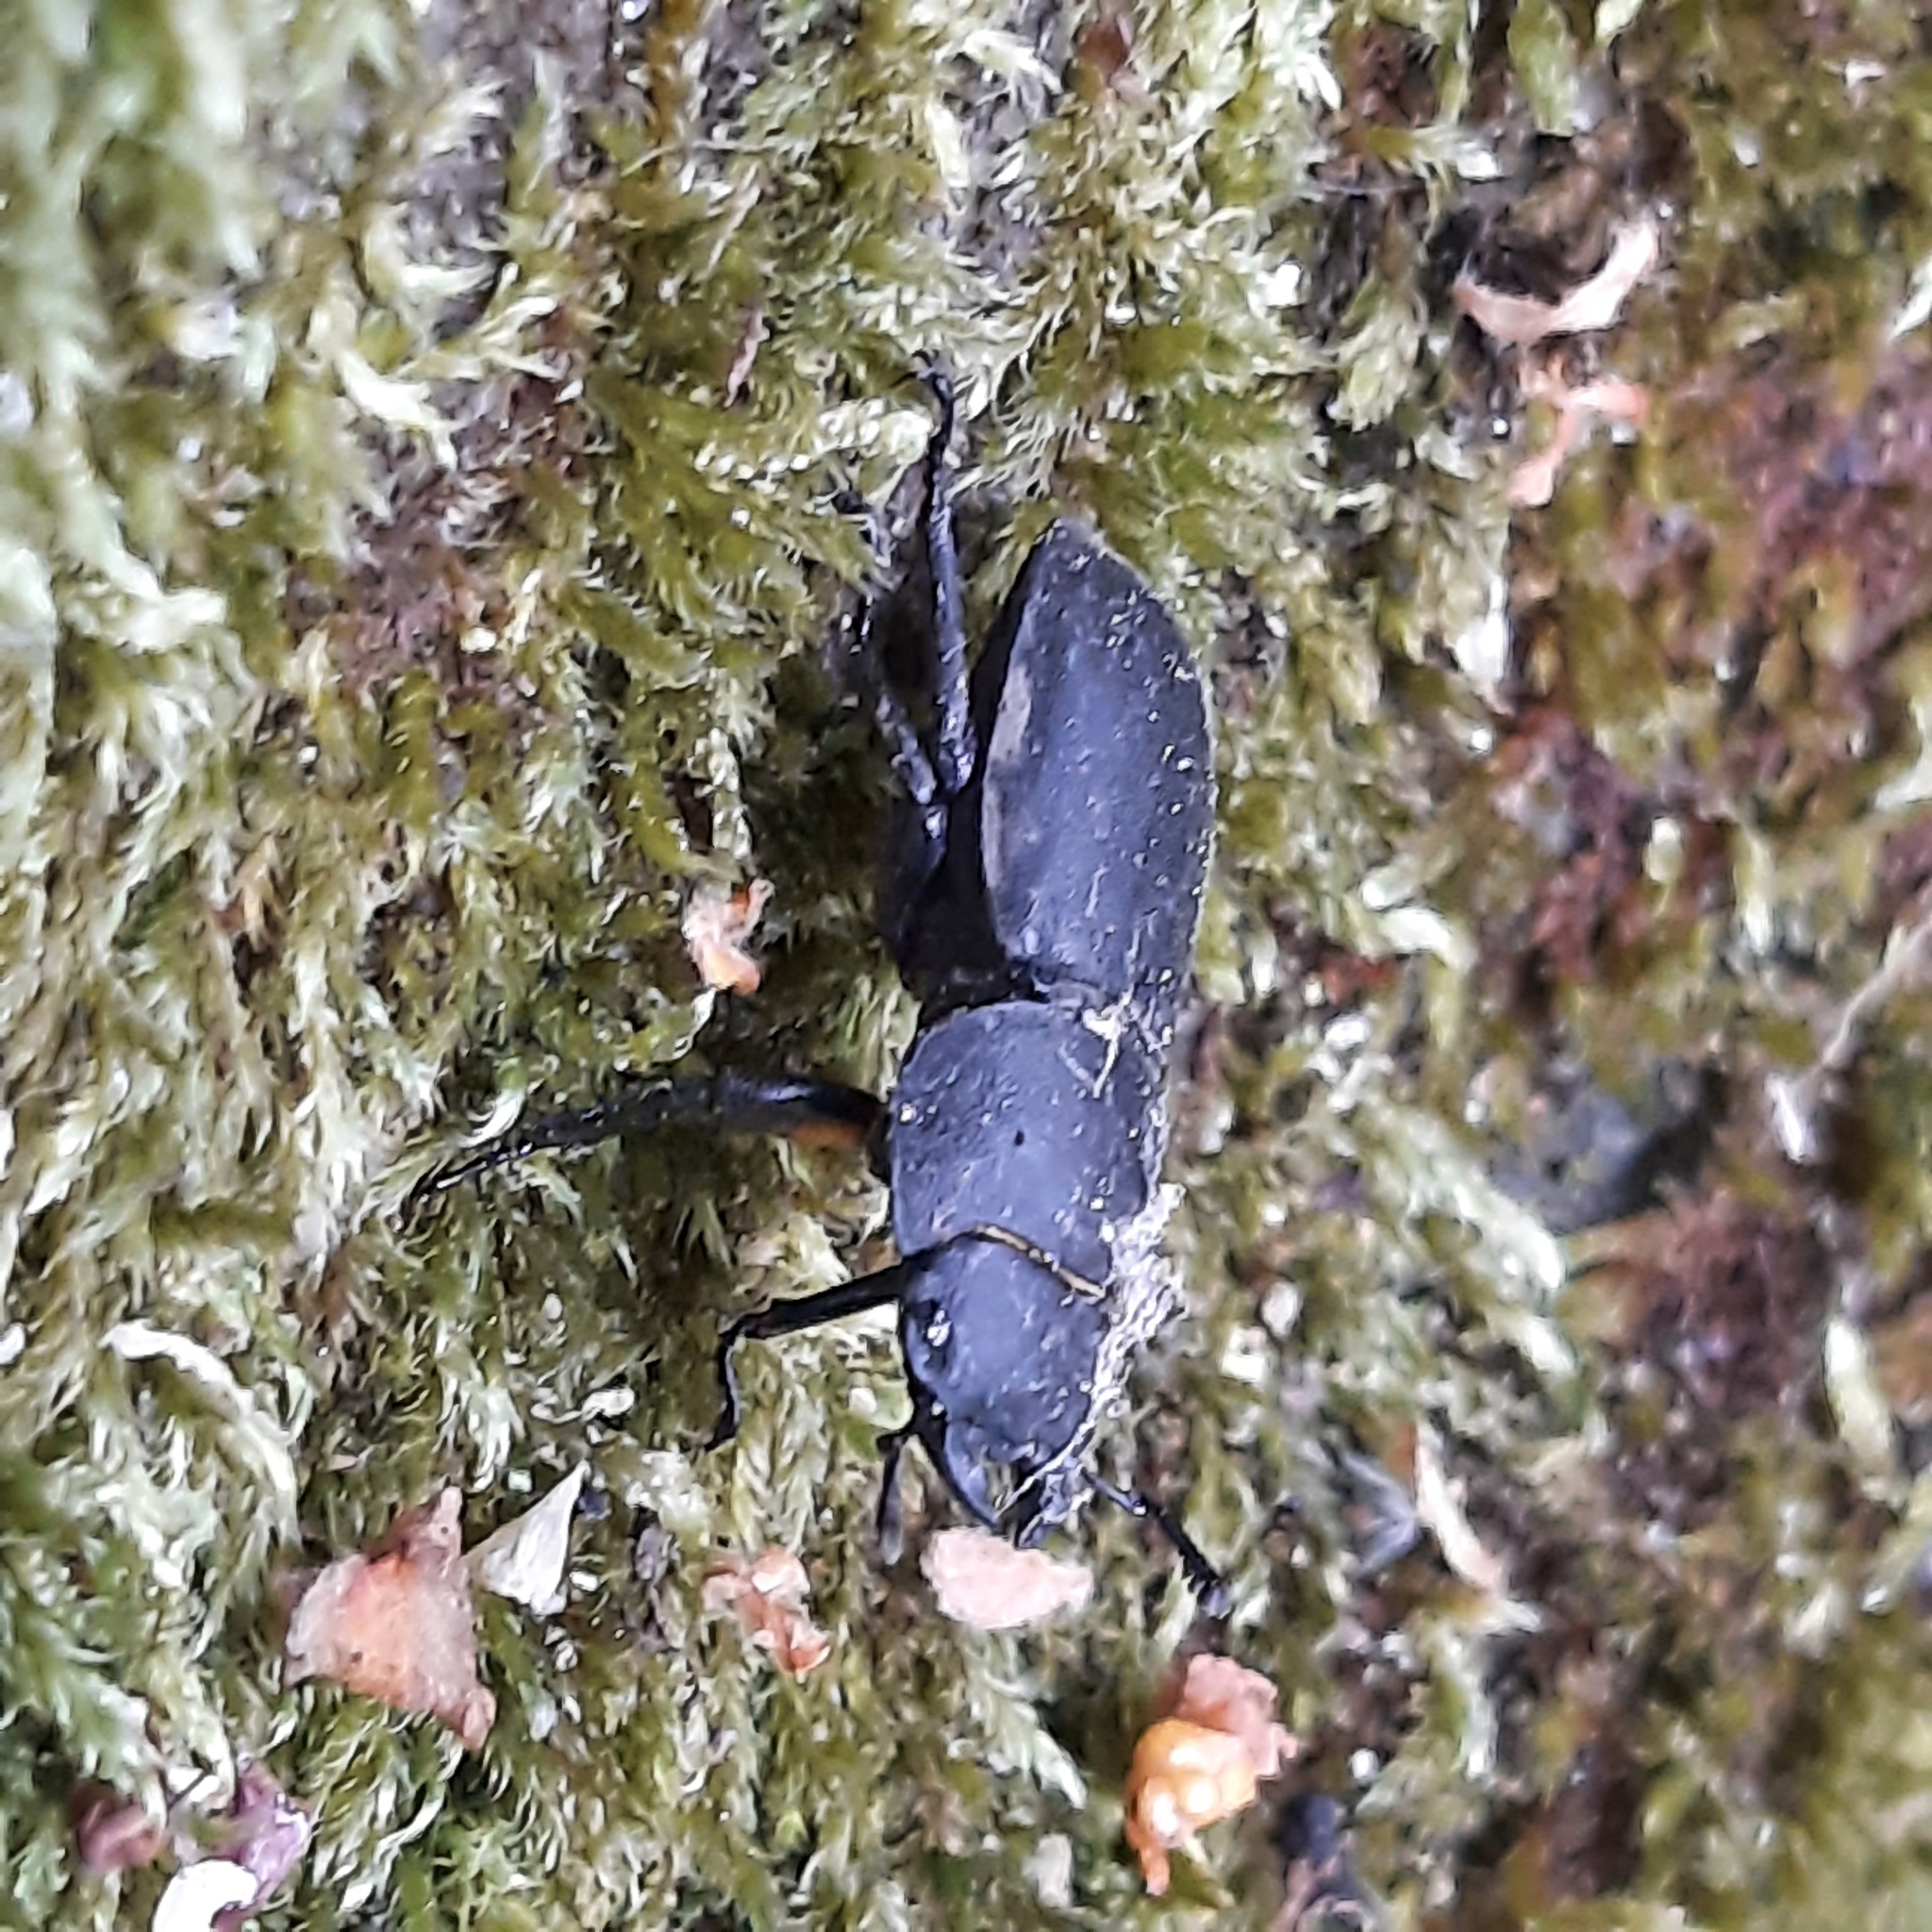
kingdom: Animalia
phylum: Arthropoda
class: Insecta
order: Coleoptera
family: Lucanidae
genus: Dorcus
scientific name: Dorcus parallelipipedus
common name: Lesser stag beetle
